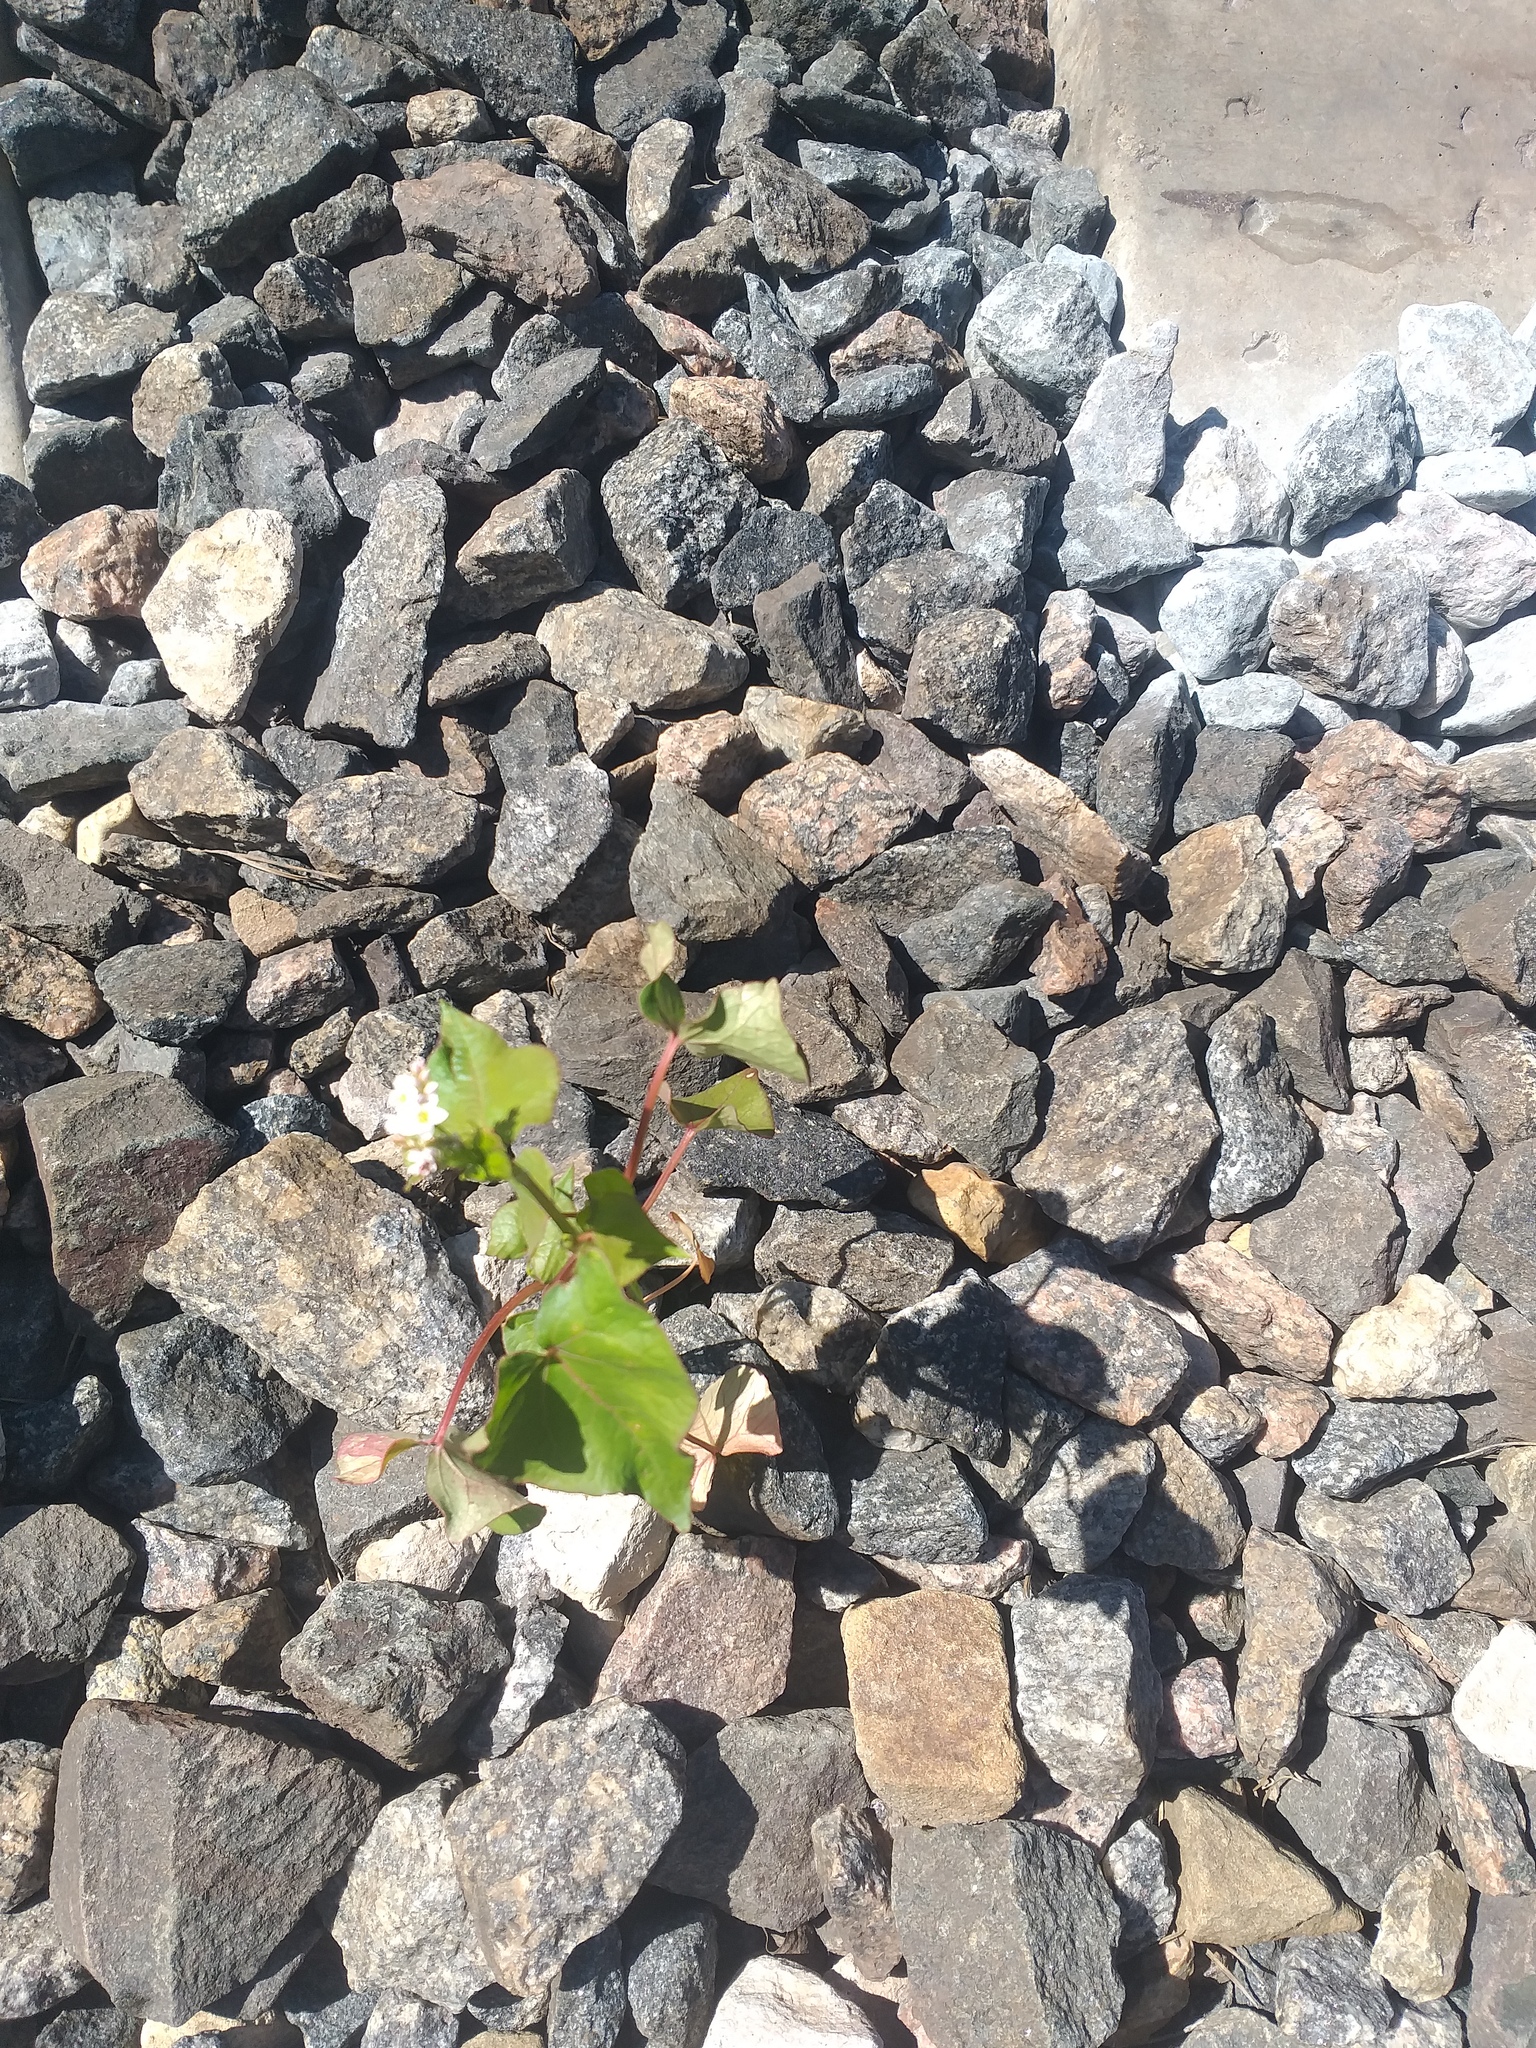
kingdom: Plantae
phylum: Tracheophyta
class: Magnoliopsida
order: Caryophyllales
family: Polygonaceae
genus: Fagopyrum
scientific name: Fagopyrum esculentum
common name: Buckwheat
